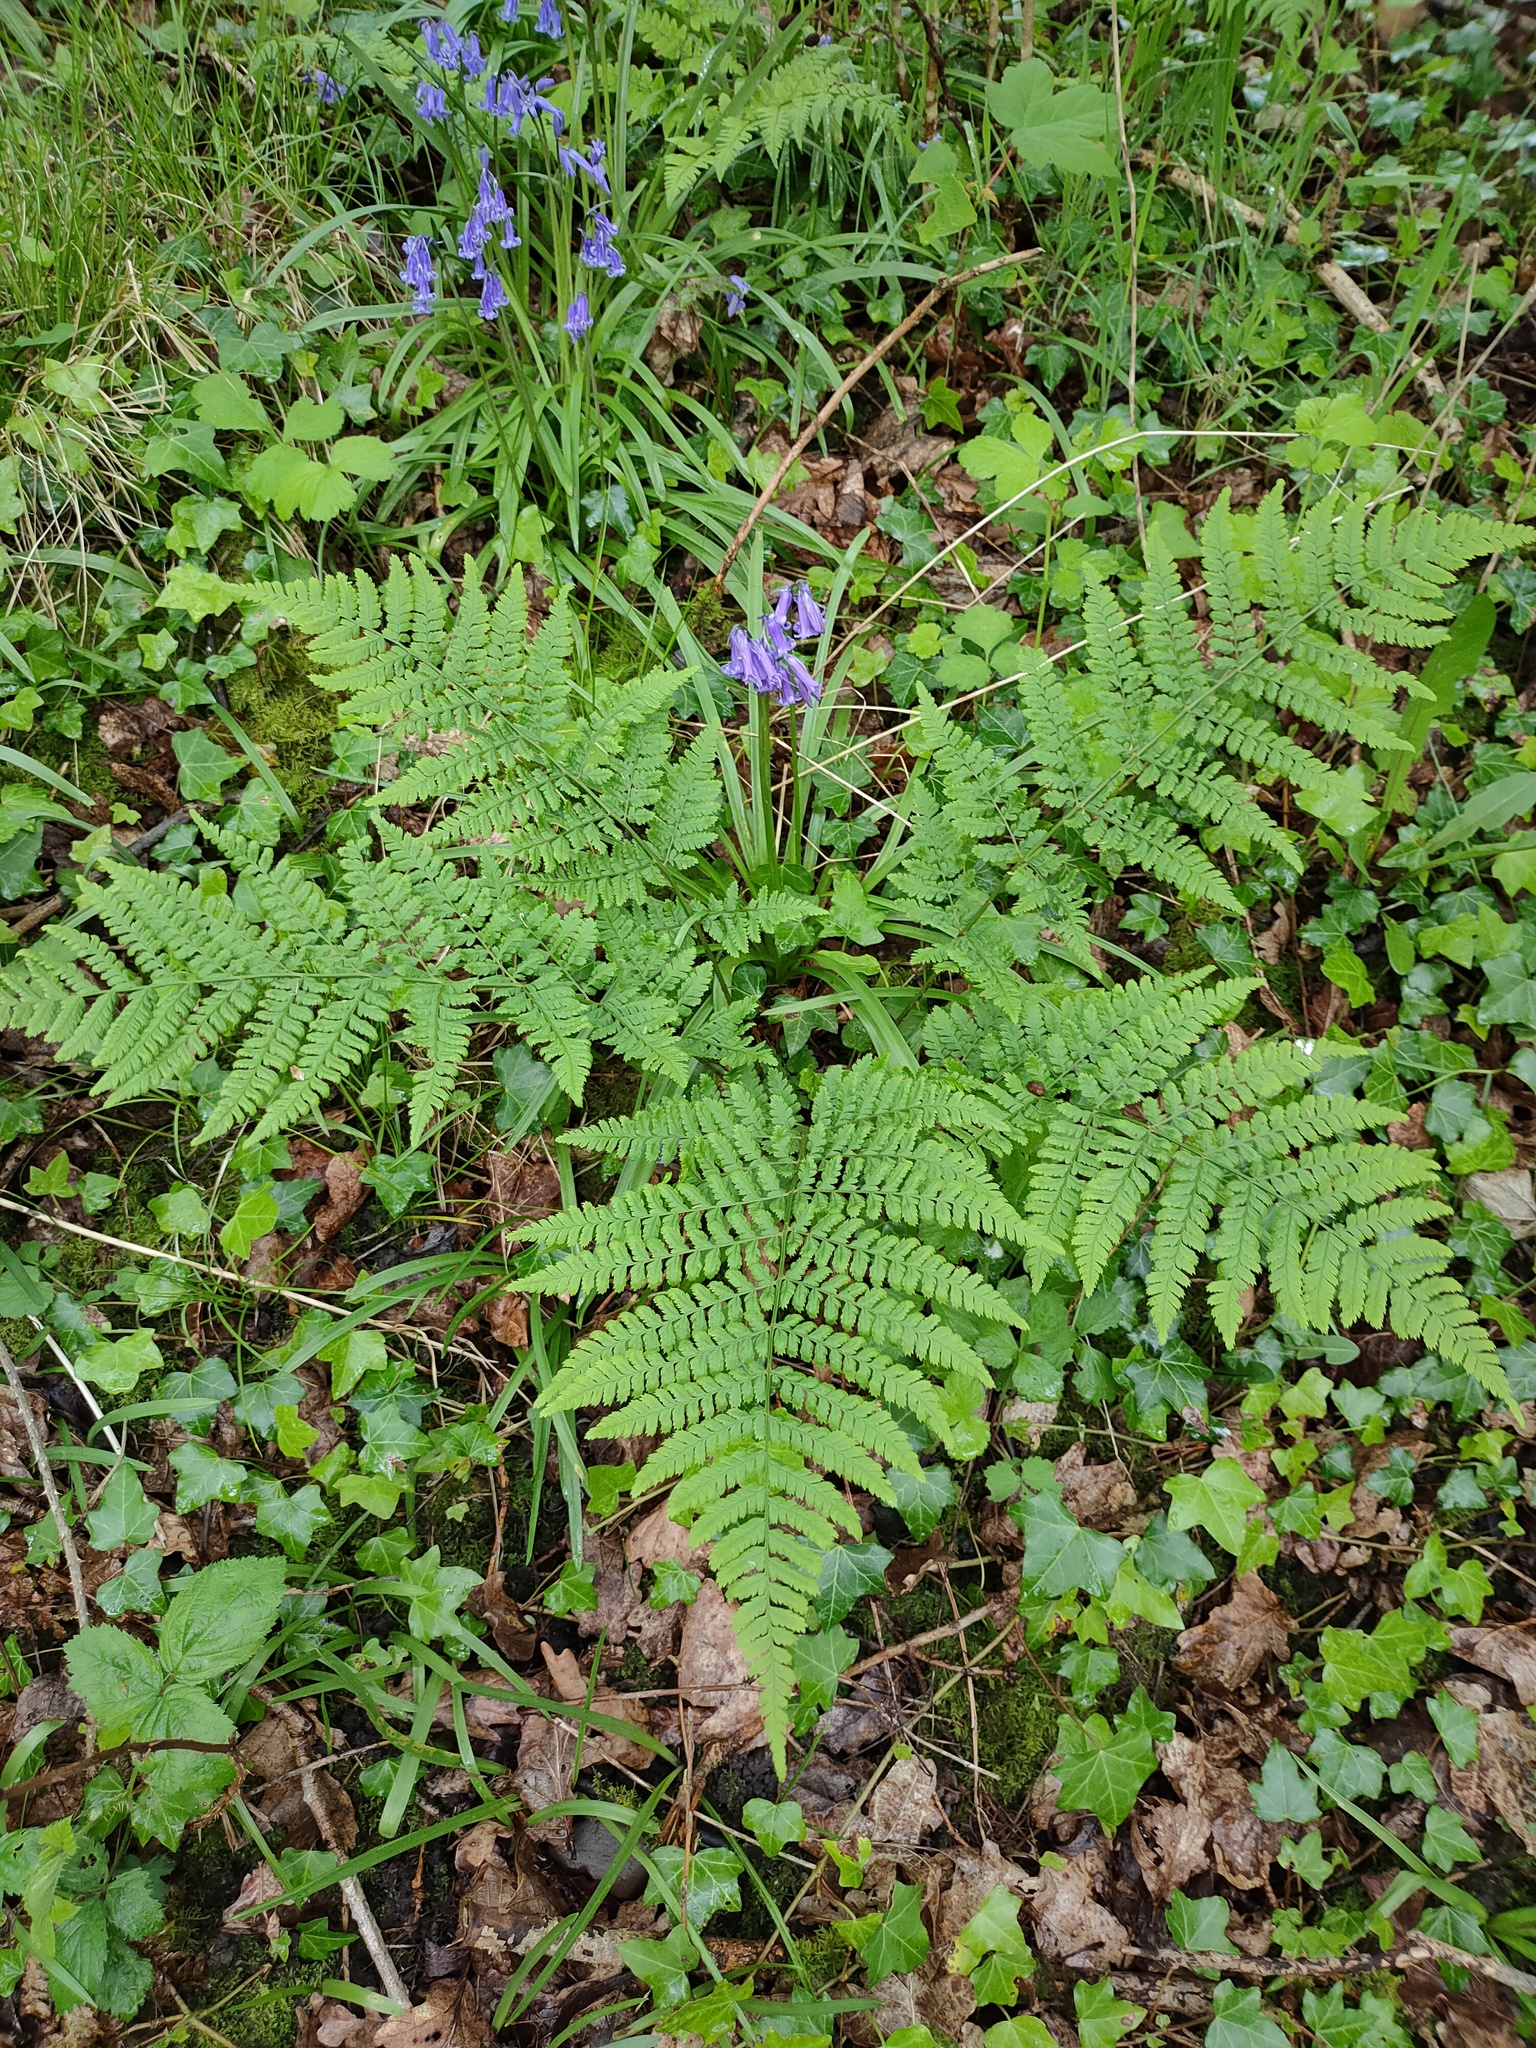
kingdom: Plantae
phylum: Tracheophyta
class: Polypodiopsida
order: Polypodiales
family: Dryopteridaceae
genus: Dryopteris
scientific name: Dryopteris dilatata
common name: Broad buckler-fern
